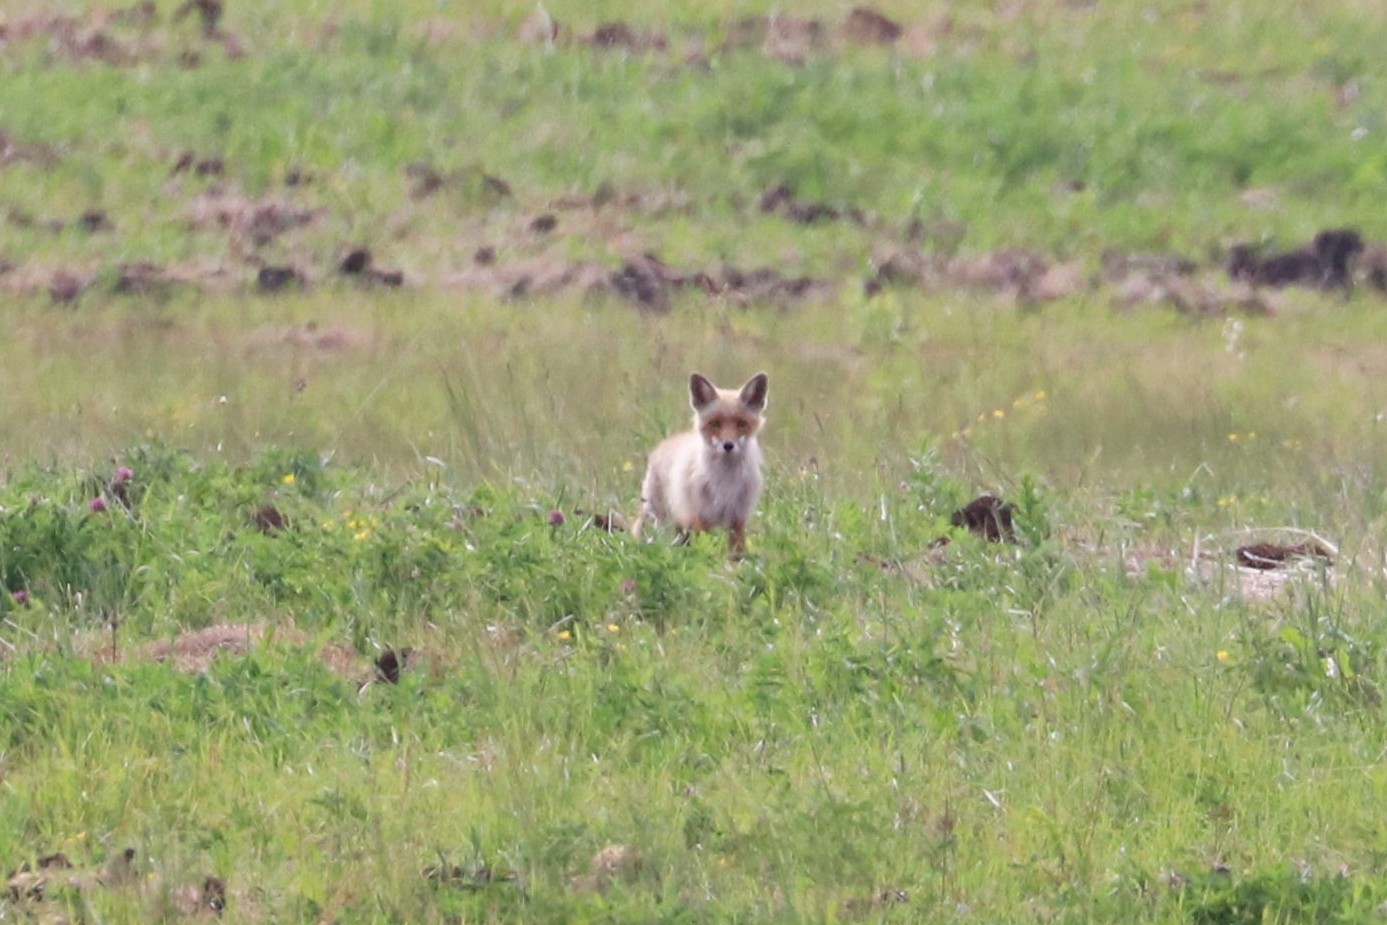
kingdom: Animalia
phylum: Chordata
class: Mammalia
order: Carnivora
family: Canidae
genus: Vulpes
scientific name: Vulpes vulpes
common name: Red fox
